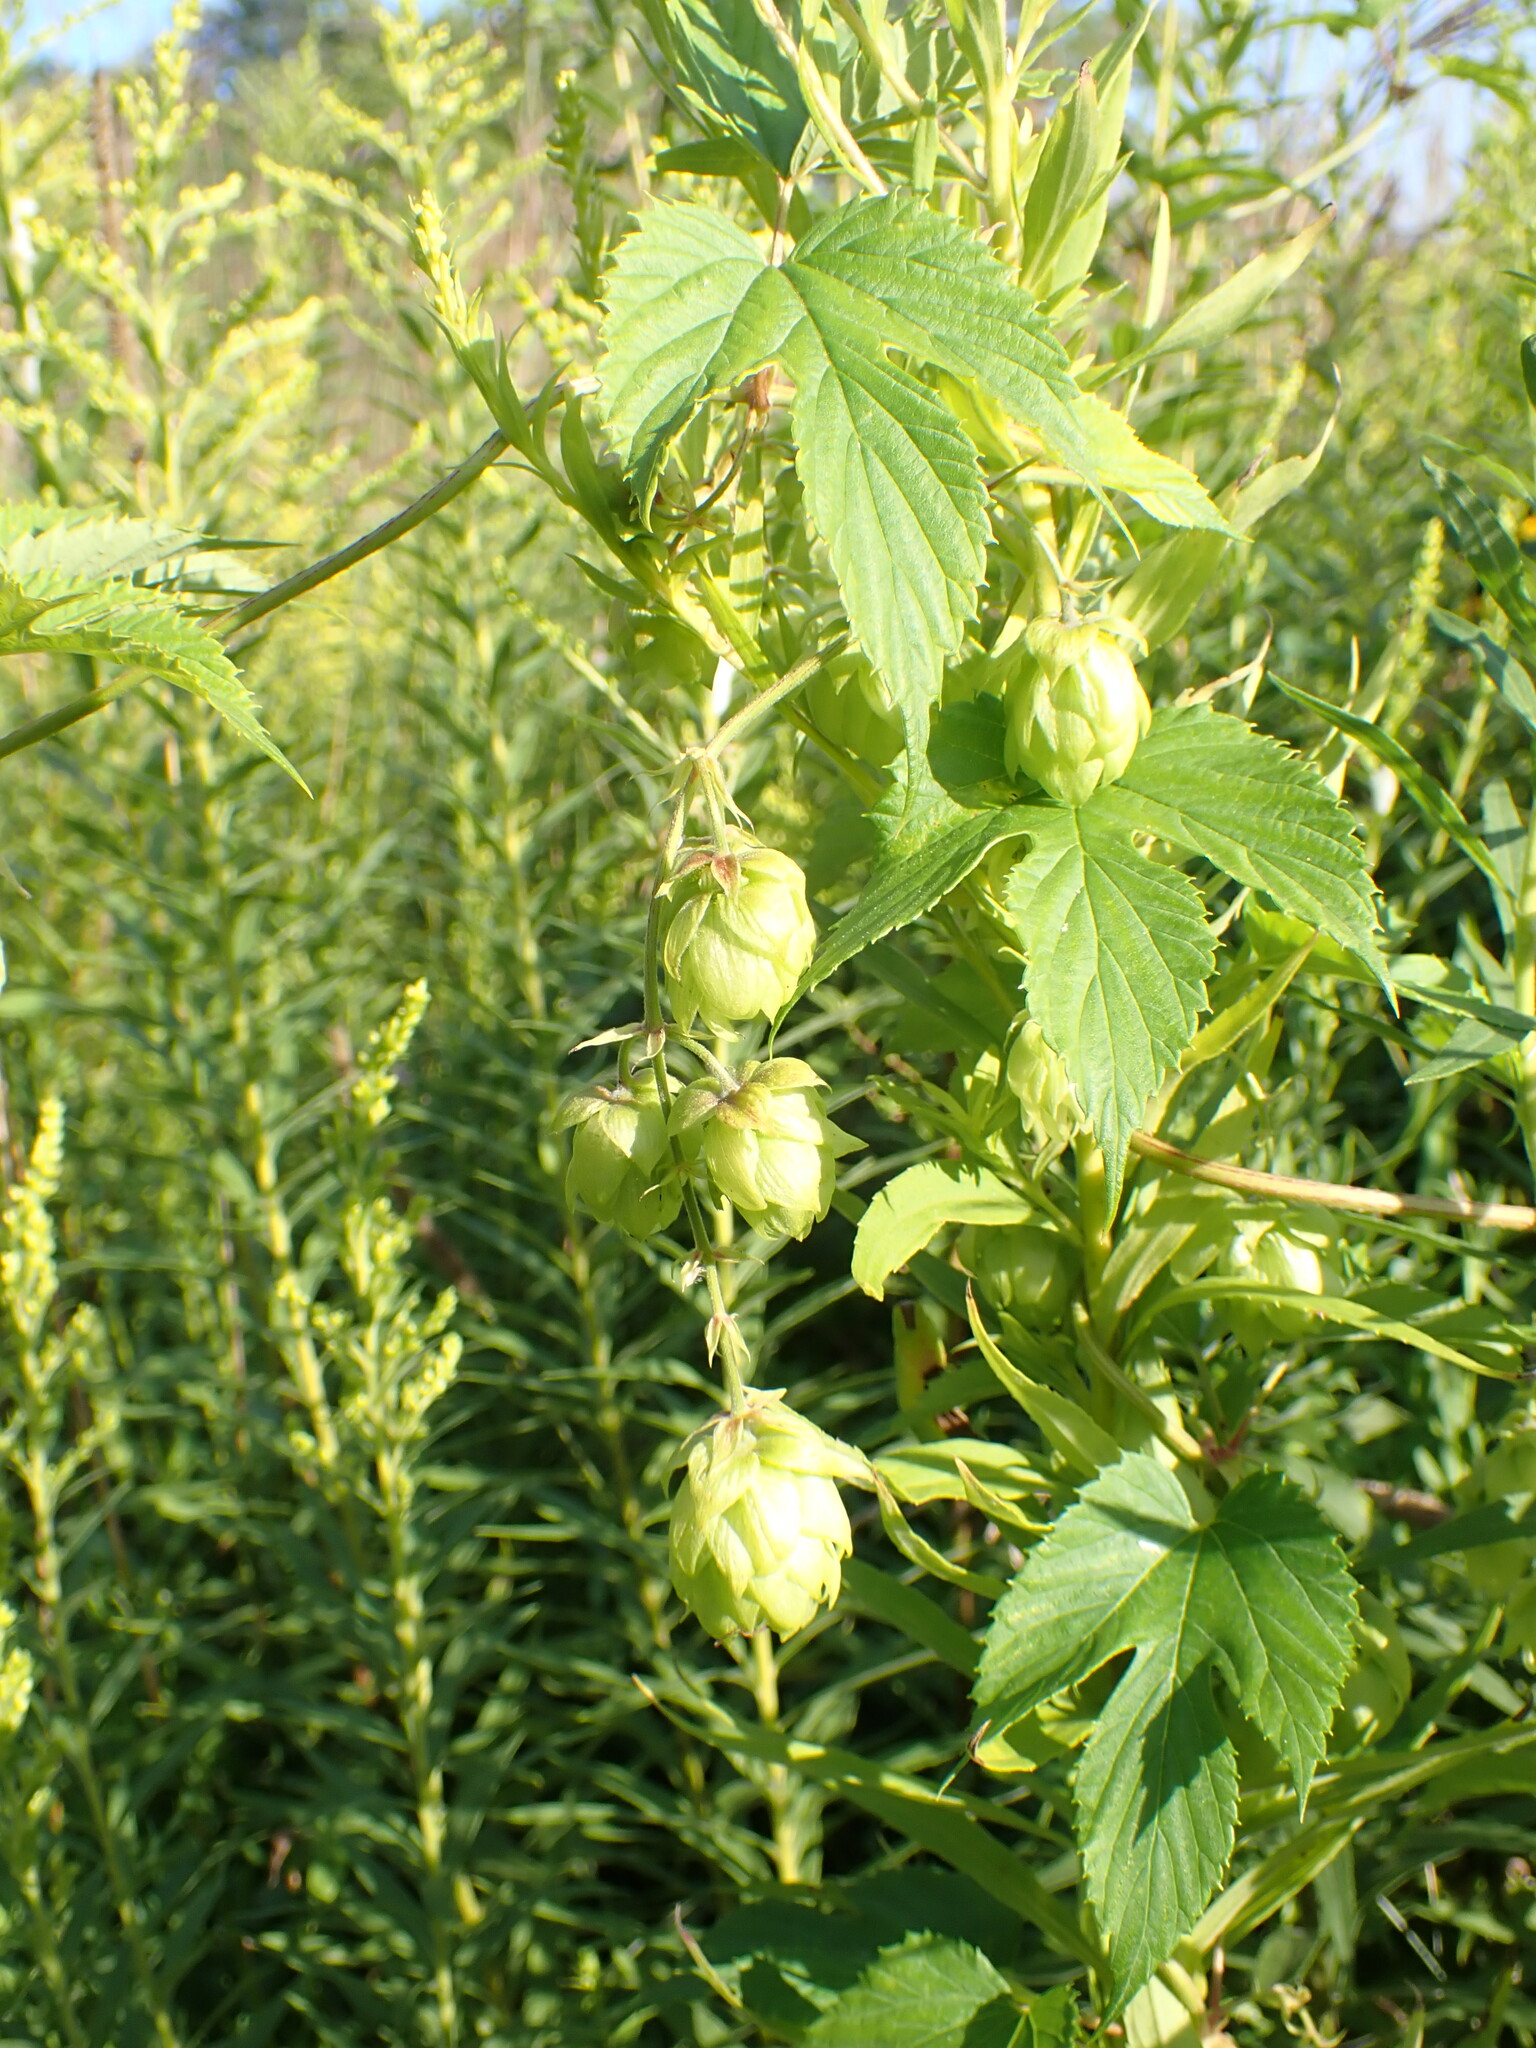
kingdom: Plantae
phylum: Tracheophyta
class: Magnoliopsida
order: Rosales
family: Cannabaceae
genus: Humulus
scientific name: Humulus lupulus
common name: Hop
